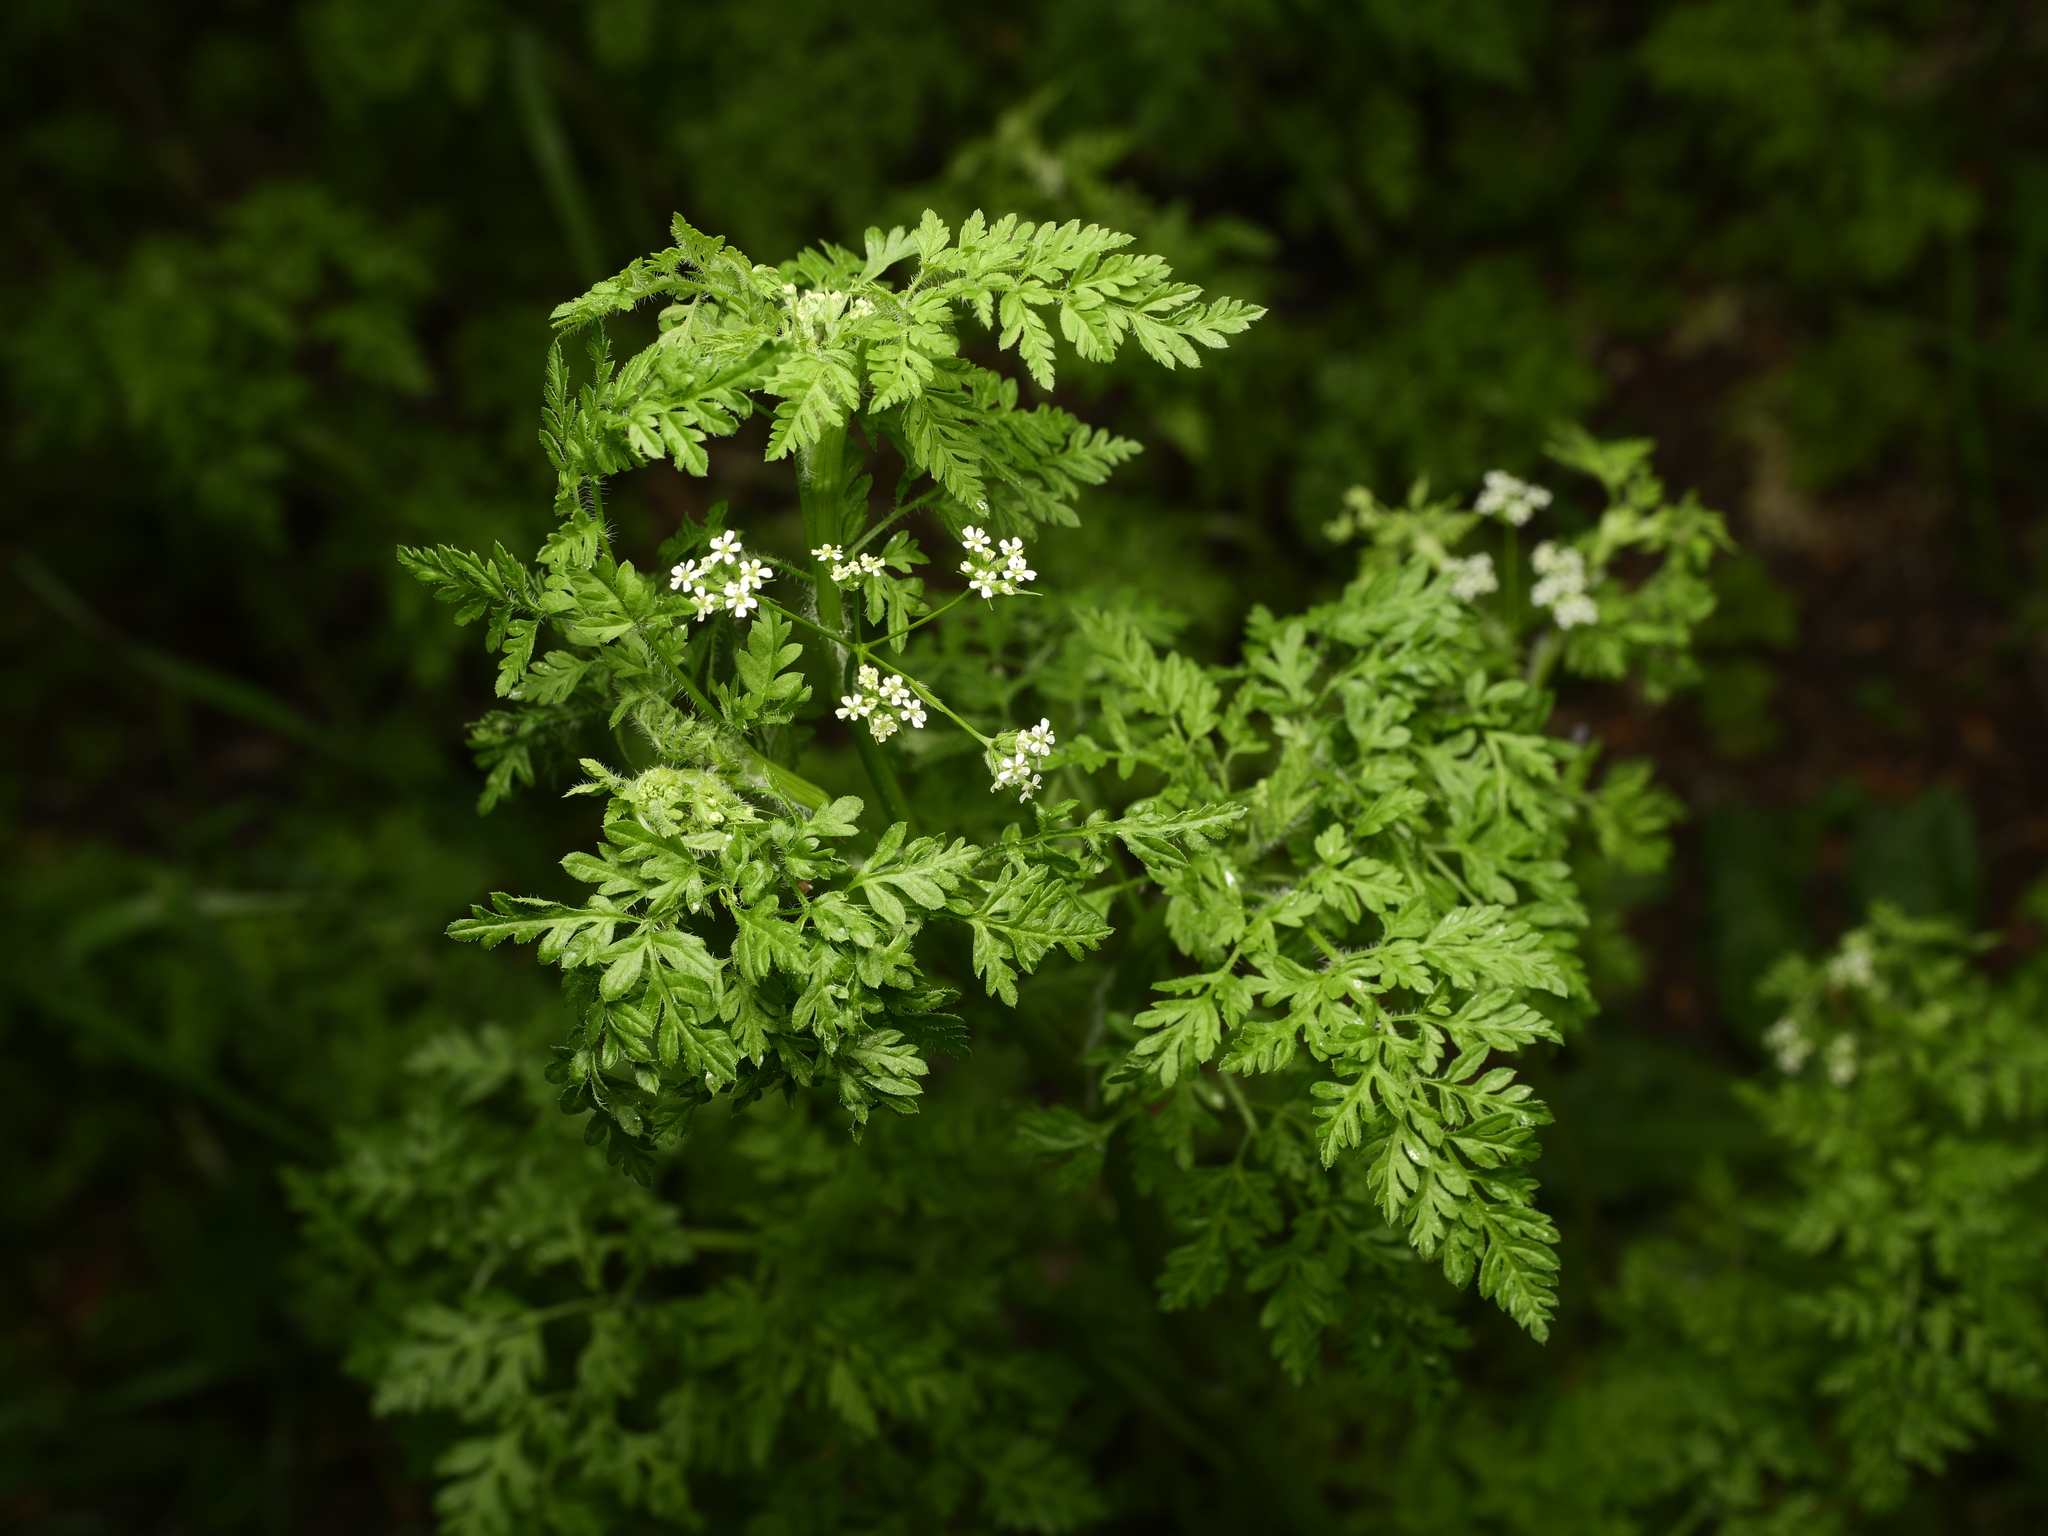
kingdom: Plantae
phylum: Tracheophyta
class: Magnoliopsida
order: Apiales
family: Apiaceae
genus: Anthriscus
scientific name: Anthriscus caucalis
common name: Bur chervil
